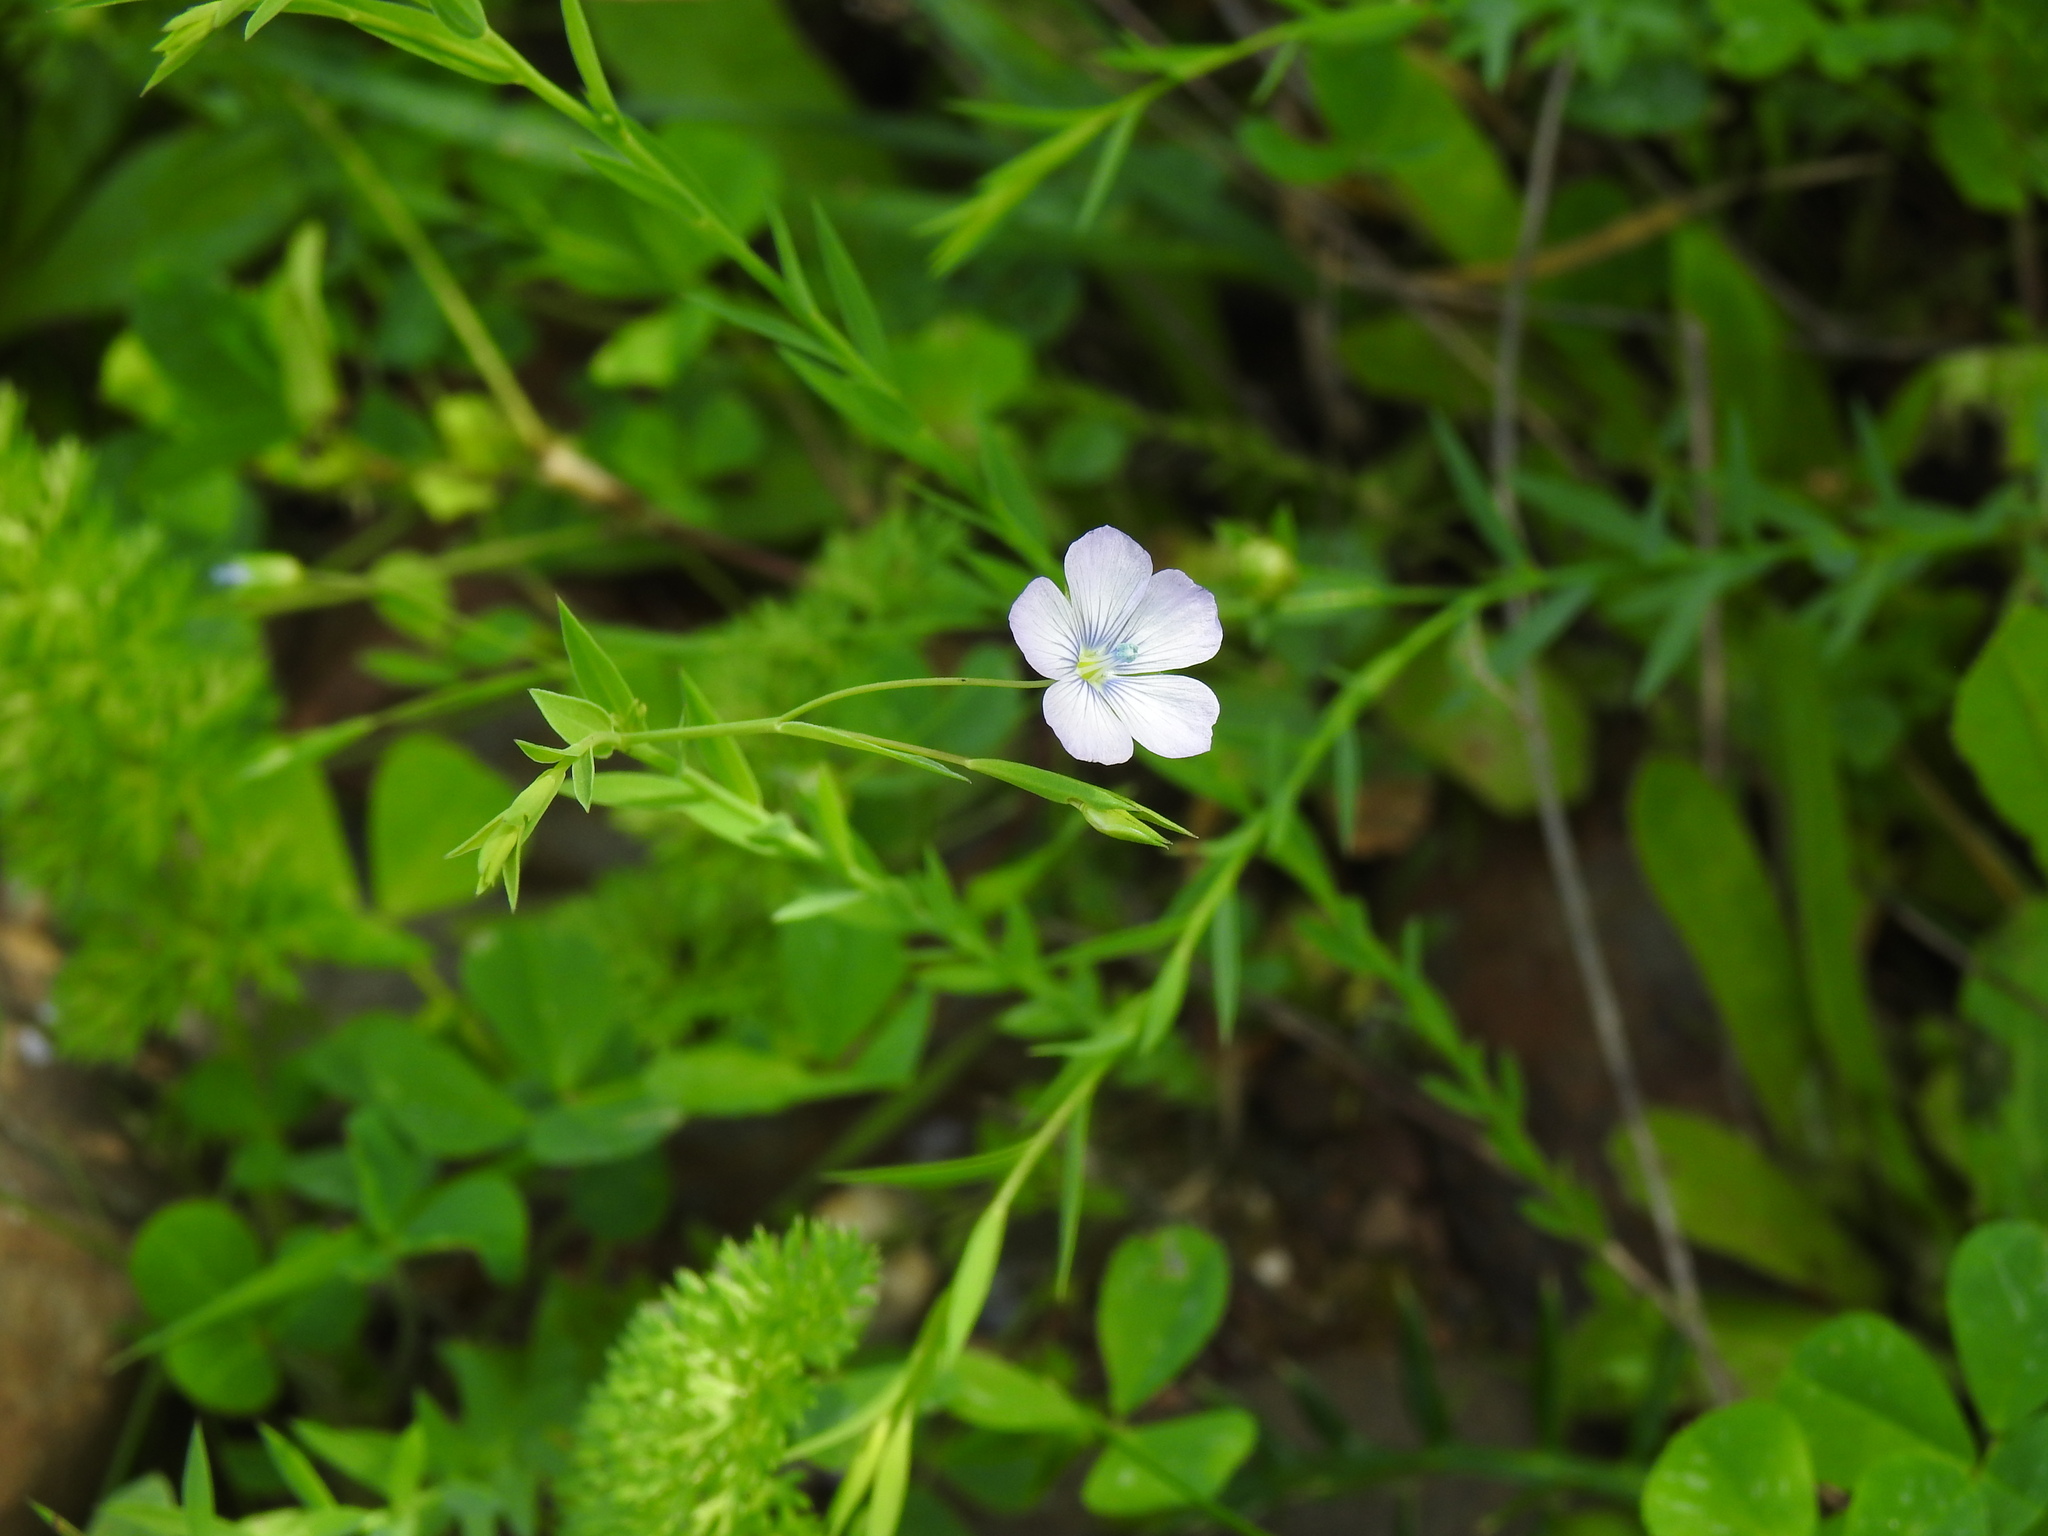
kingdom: Plantae
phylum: Tracheophyta
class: Magnoliopsida
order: Malpighiales
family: Linaceae
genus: Linum
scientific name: Linum bienne
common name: Pale flax
